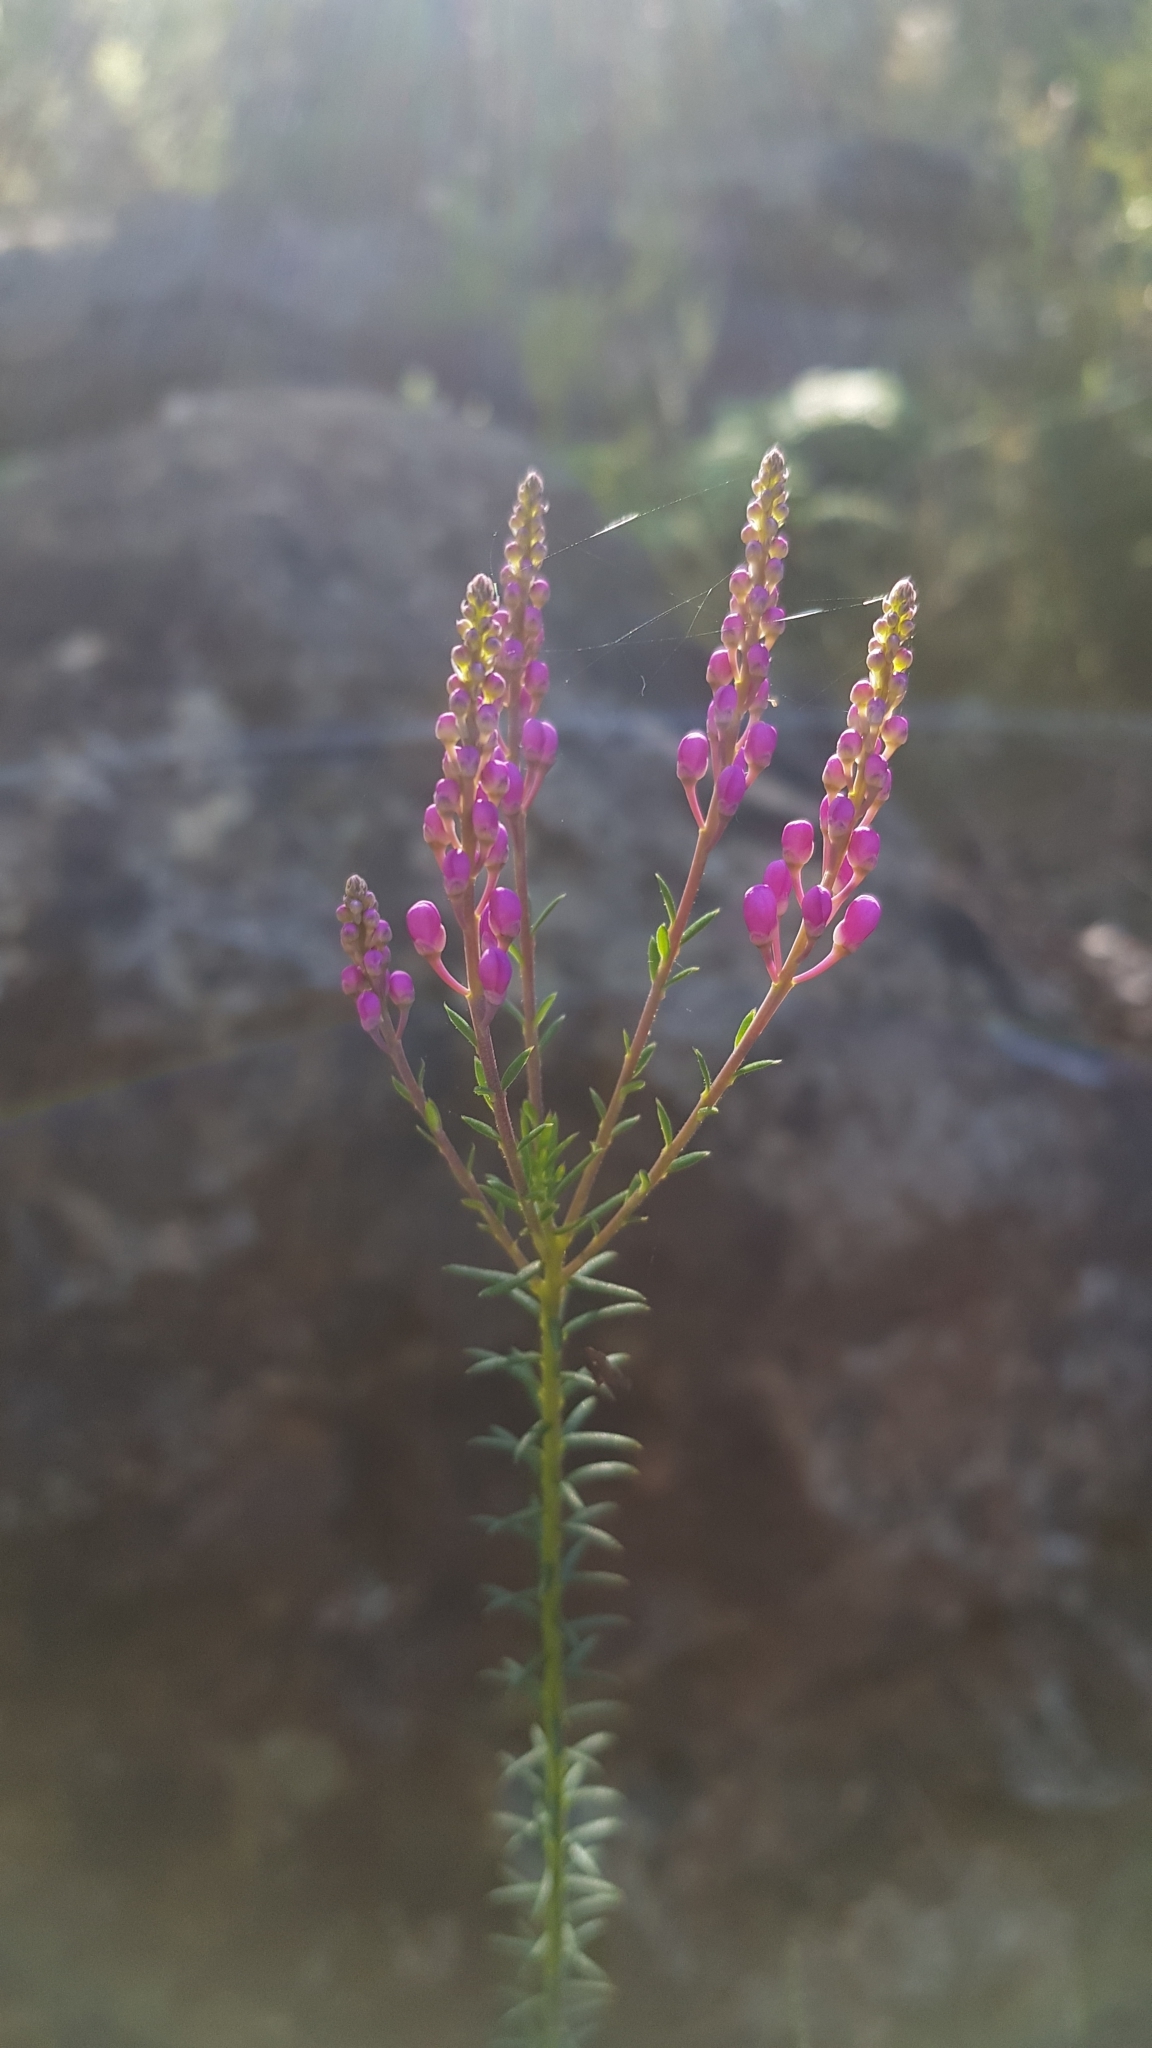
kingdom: Plantae
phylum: Tracheophyta
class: Magnoliopsida
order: Fabales
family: Polygalaceae
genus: Comesperma
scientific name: Comesperma ericinum
